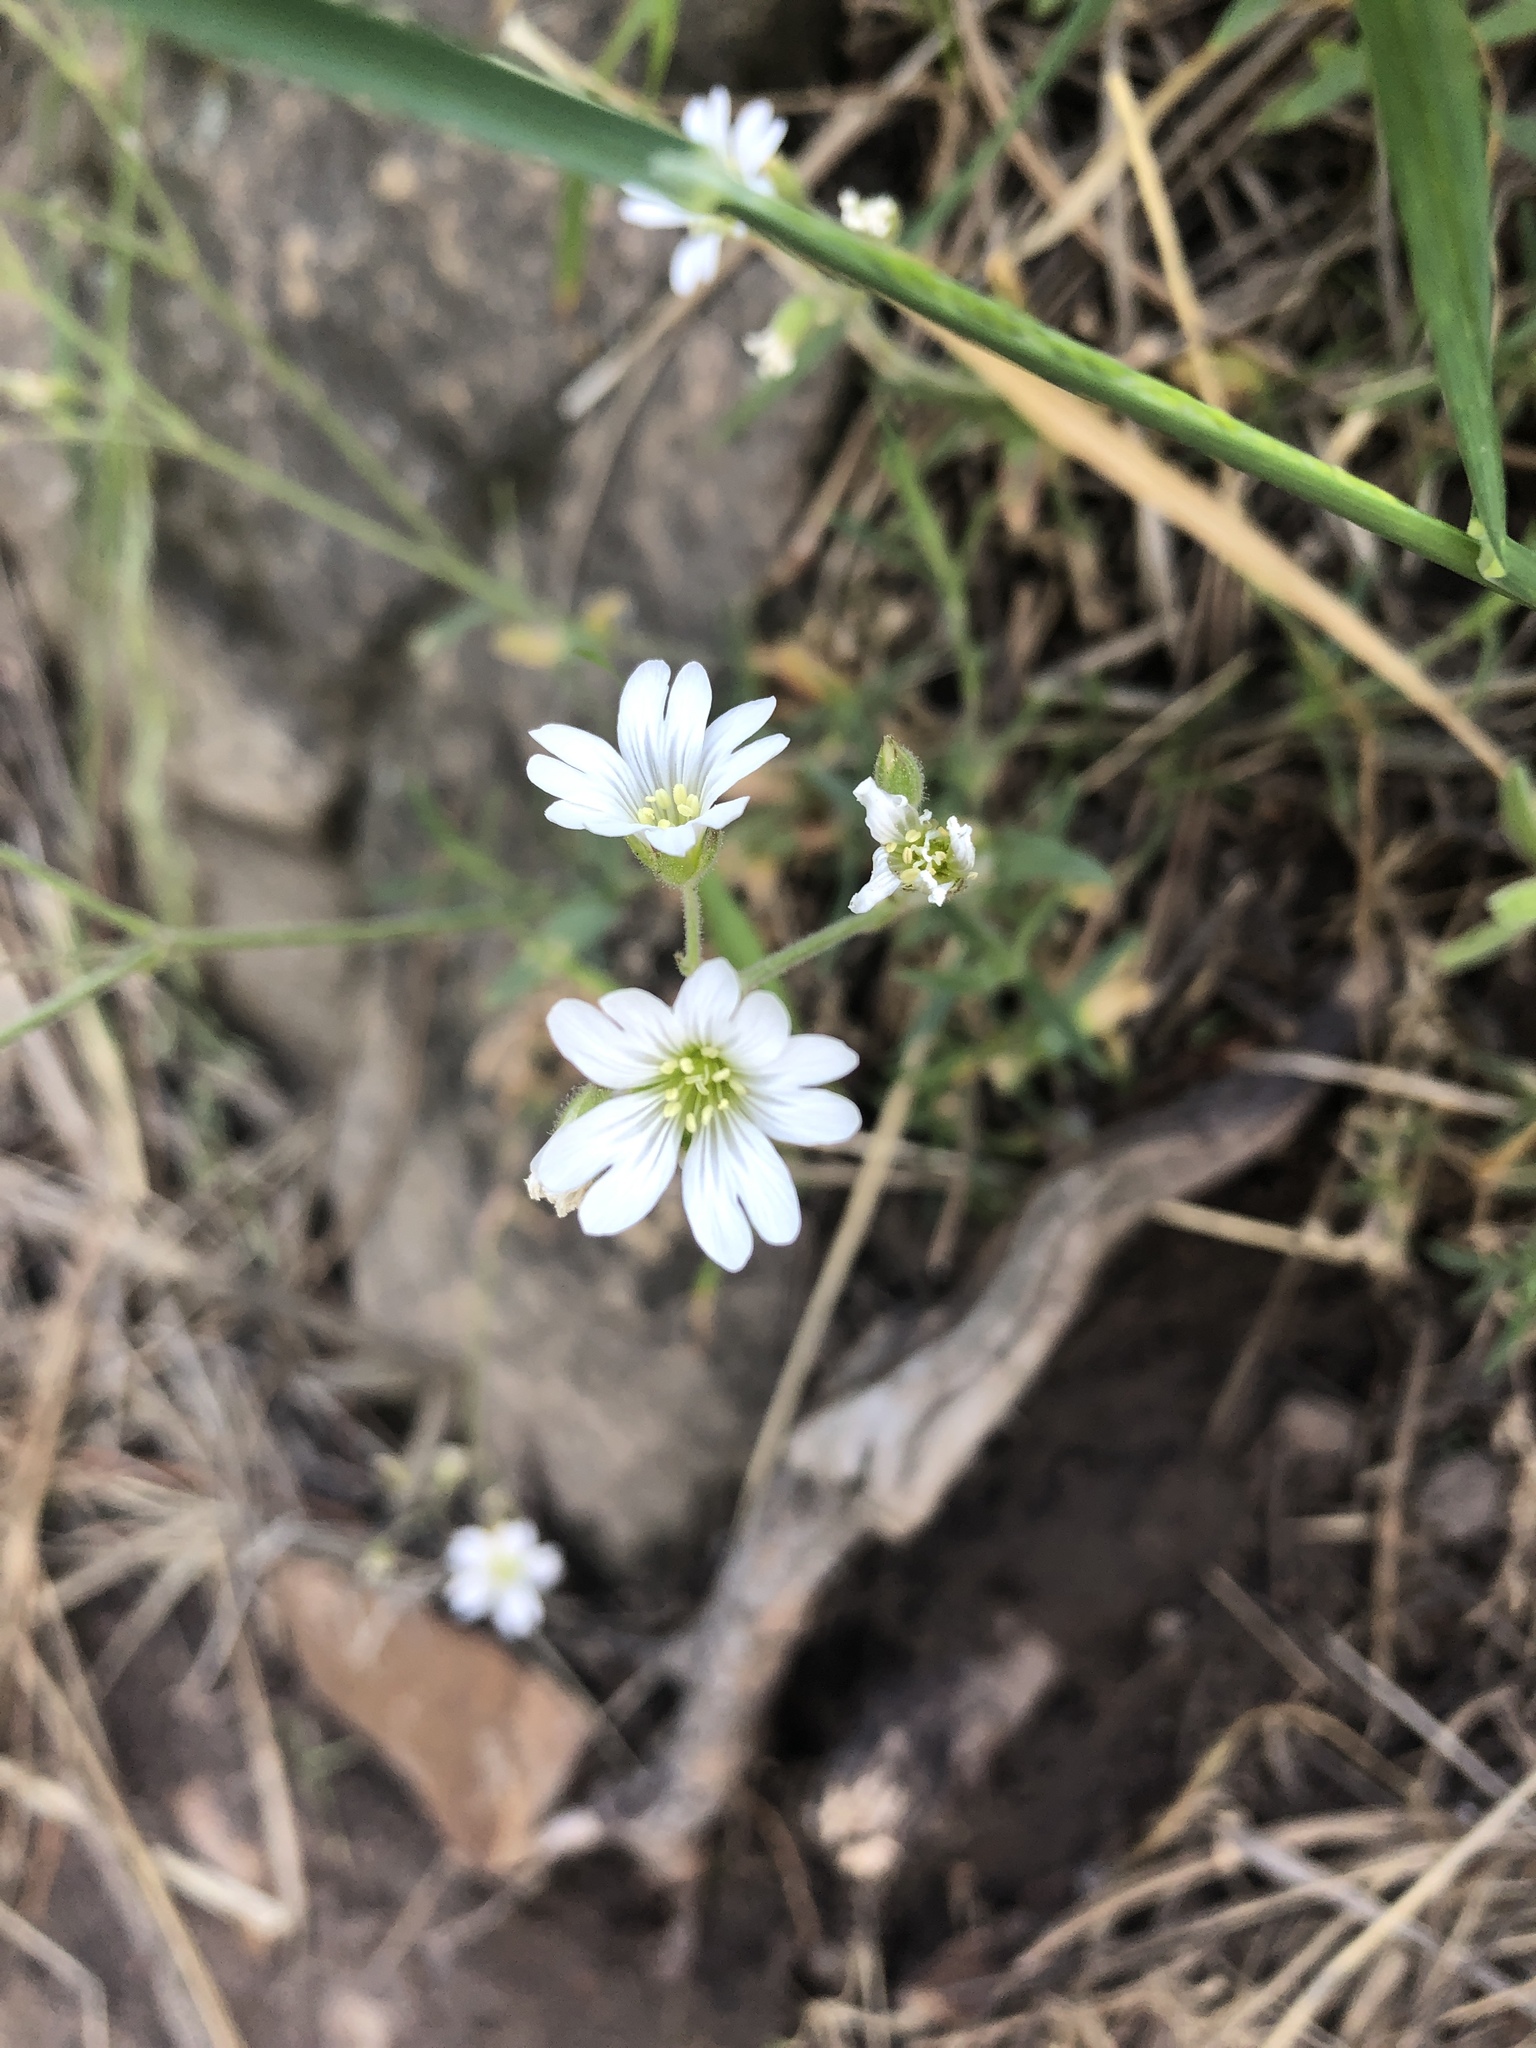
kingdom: Plantae
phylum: Tracheophyta
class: Magnoliopsida
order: Caryophyllales
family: Caryophyllaceae
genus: Cerastium
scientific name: Cerastium arvense
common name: Field mouse-ear
